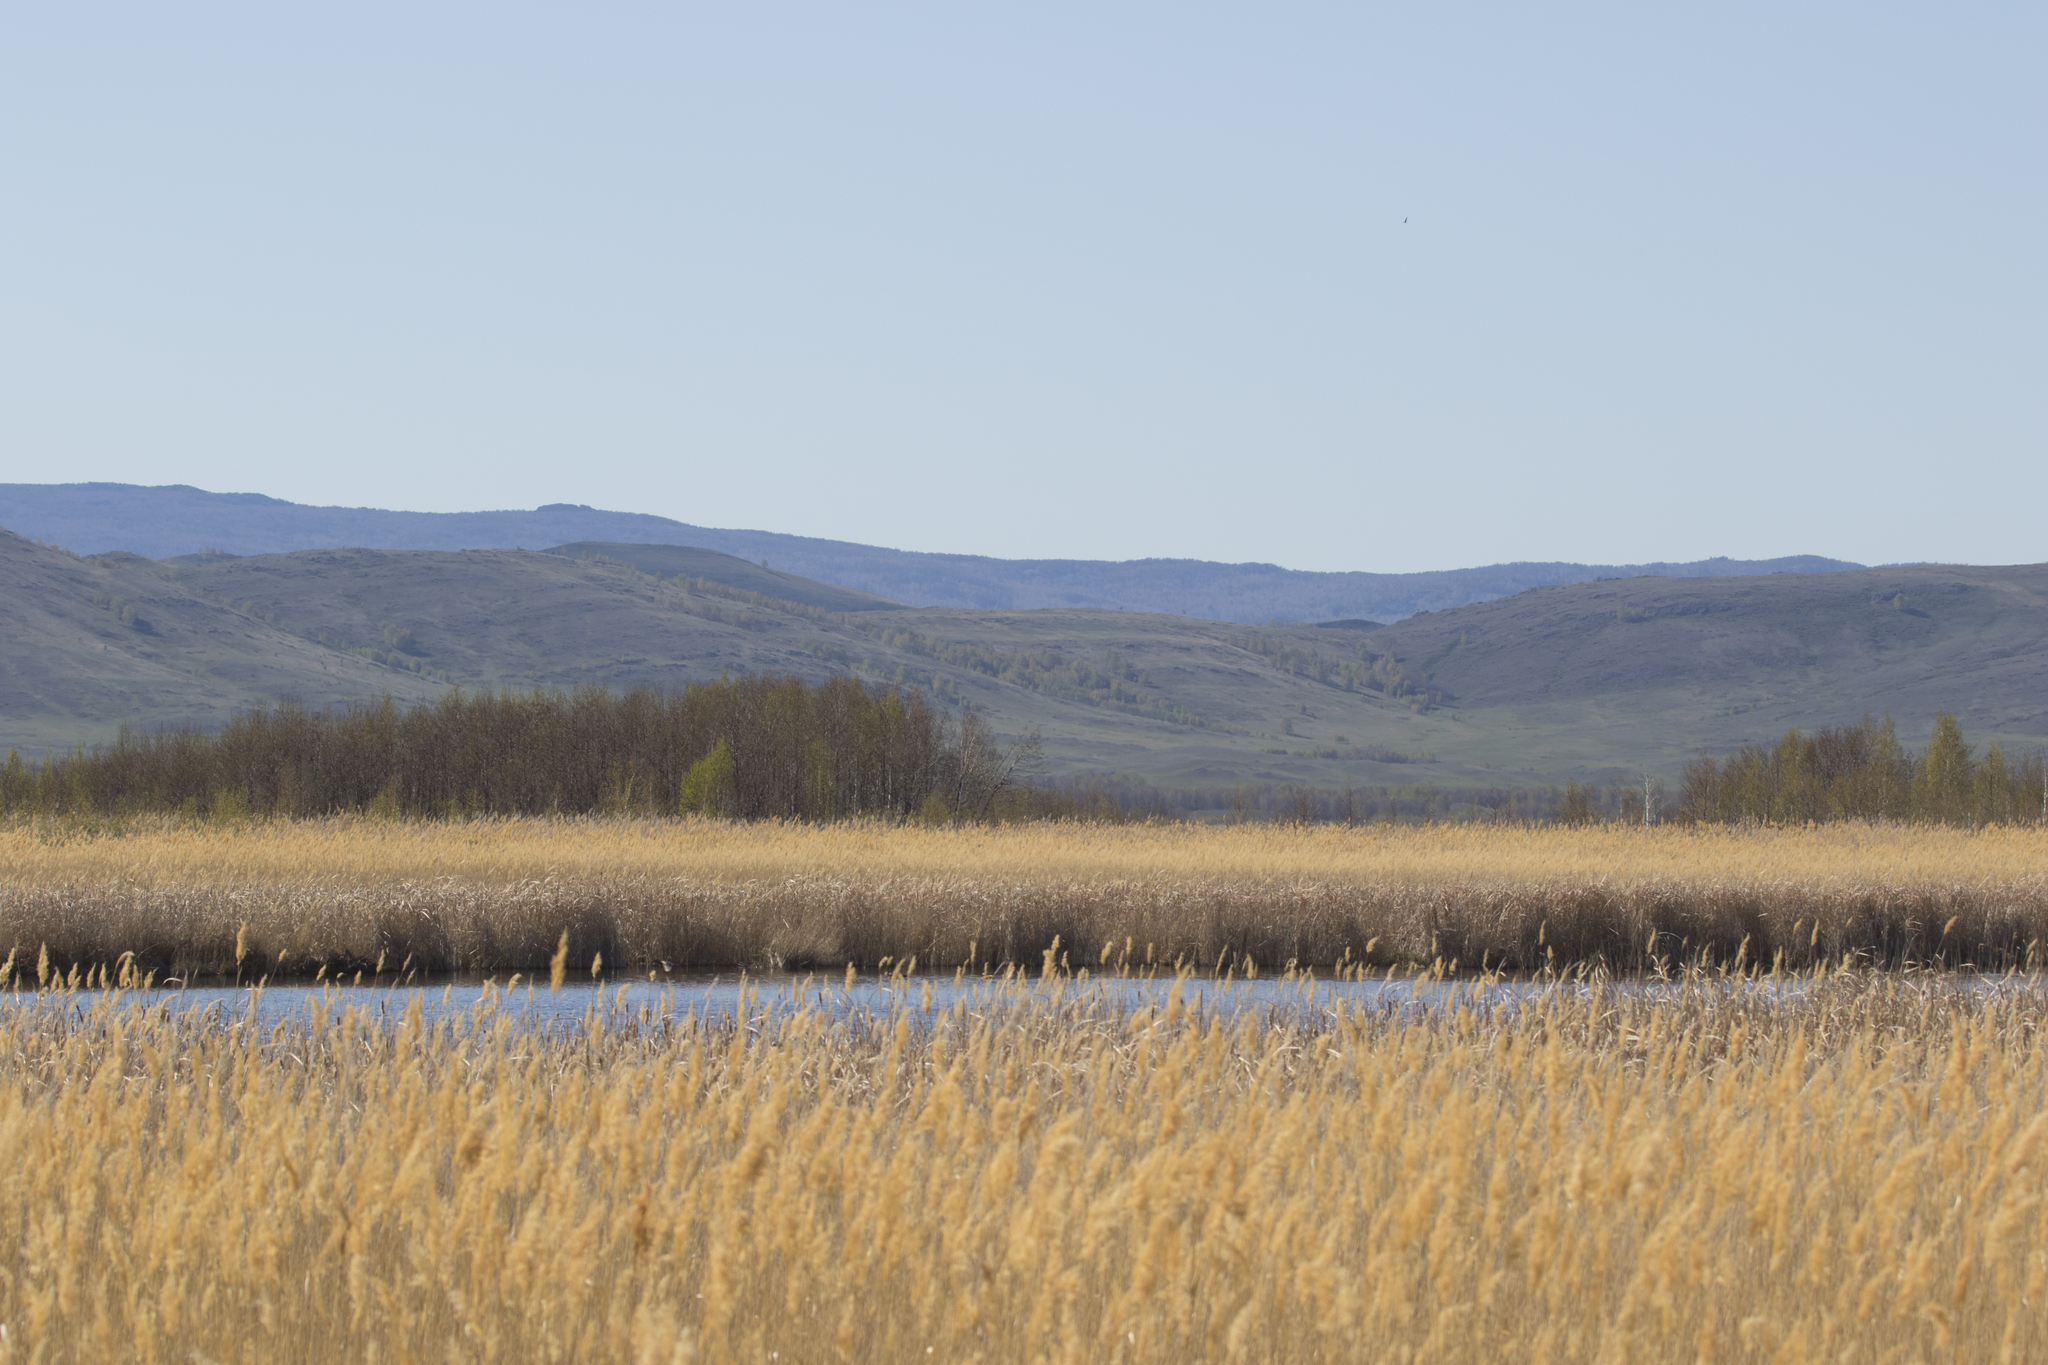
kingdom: Animalia
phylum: Chordata
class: Aves
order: Gruiformes
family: Gruidae
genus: Grus
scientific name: Grus grus
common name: Common crane
